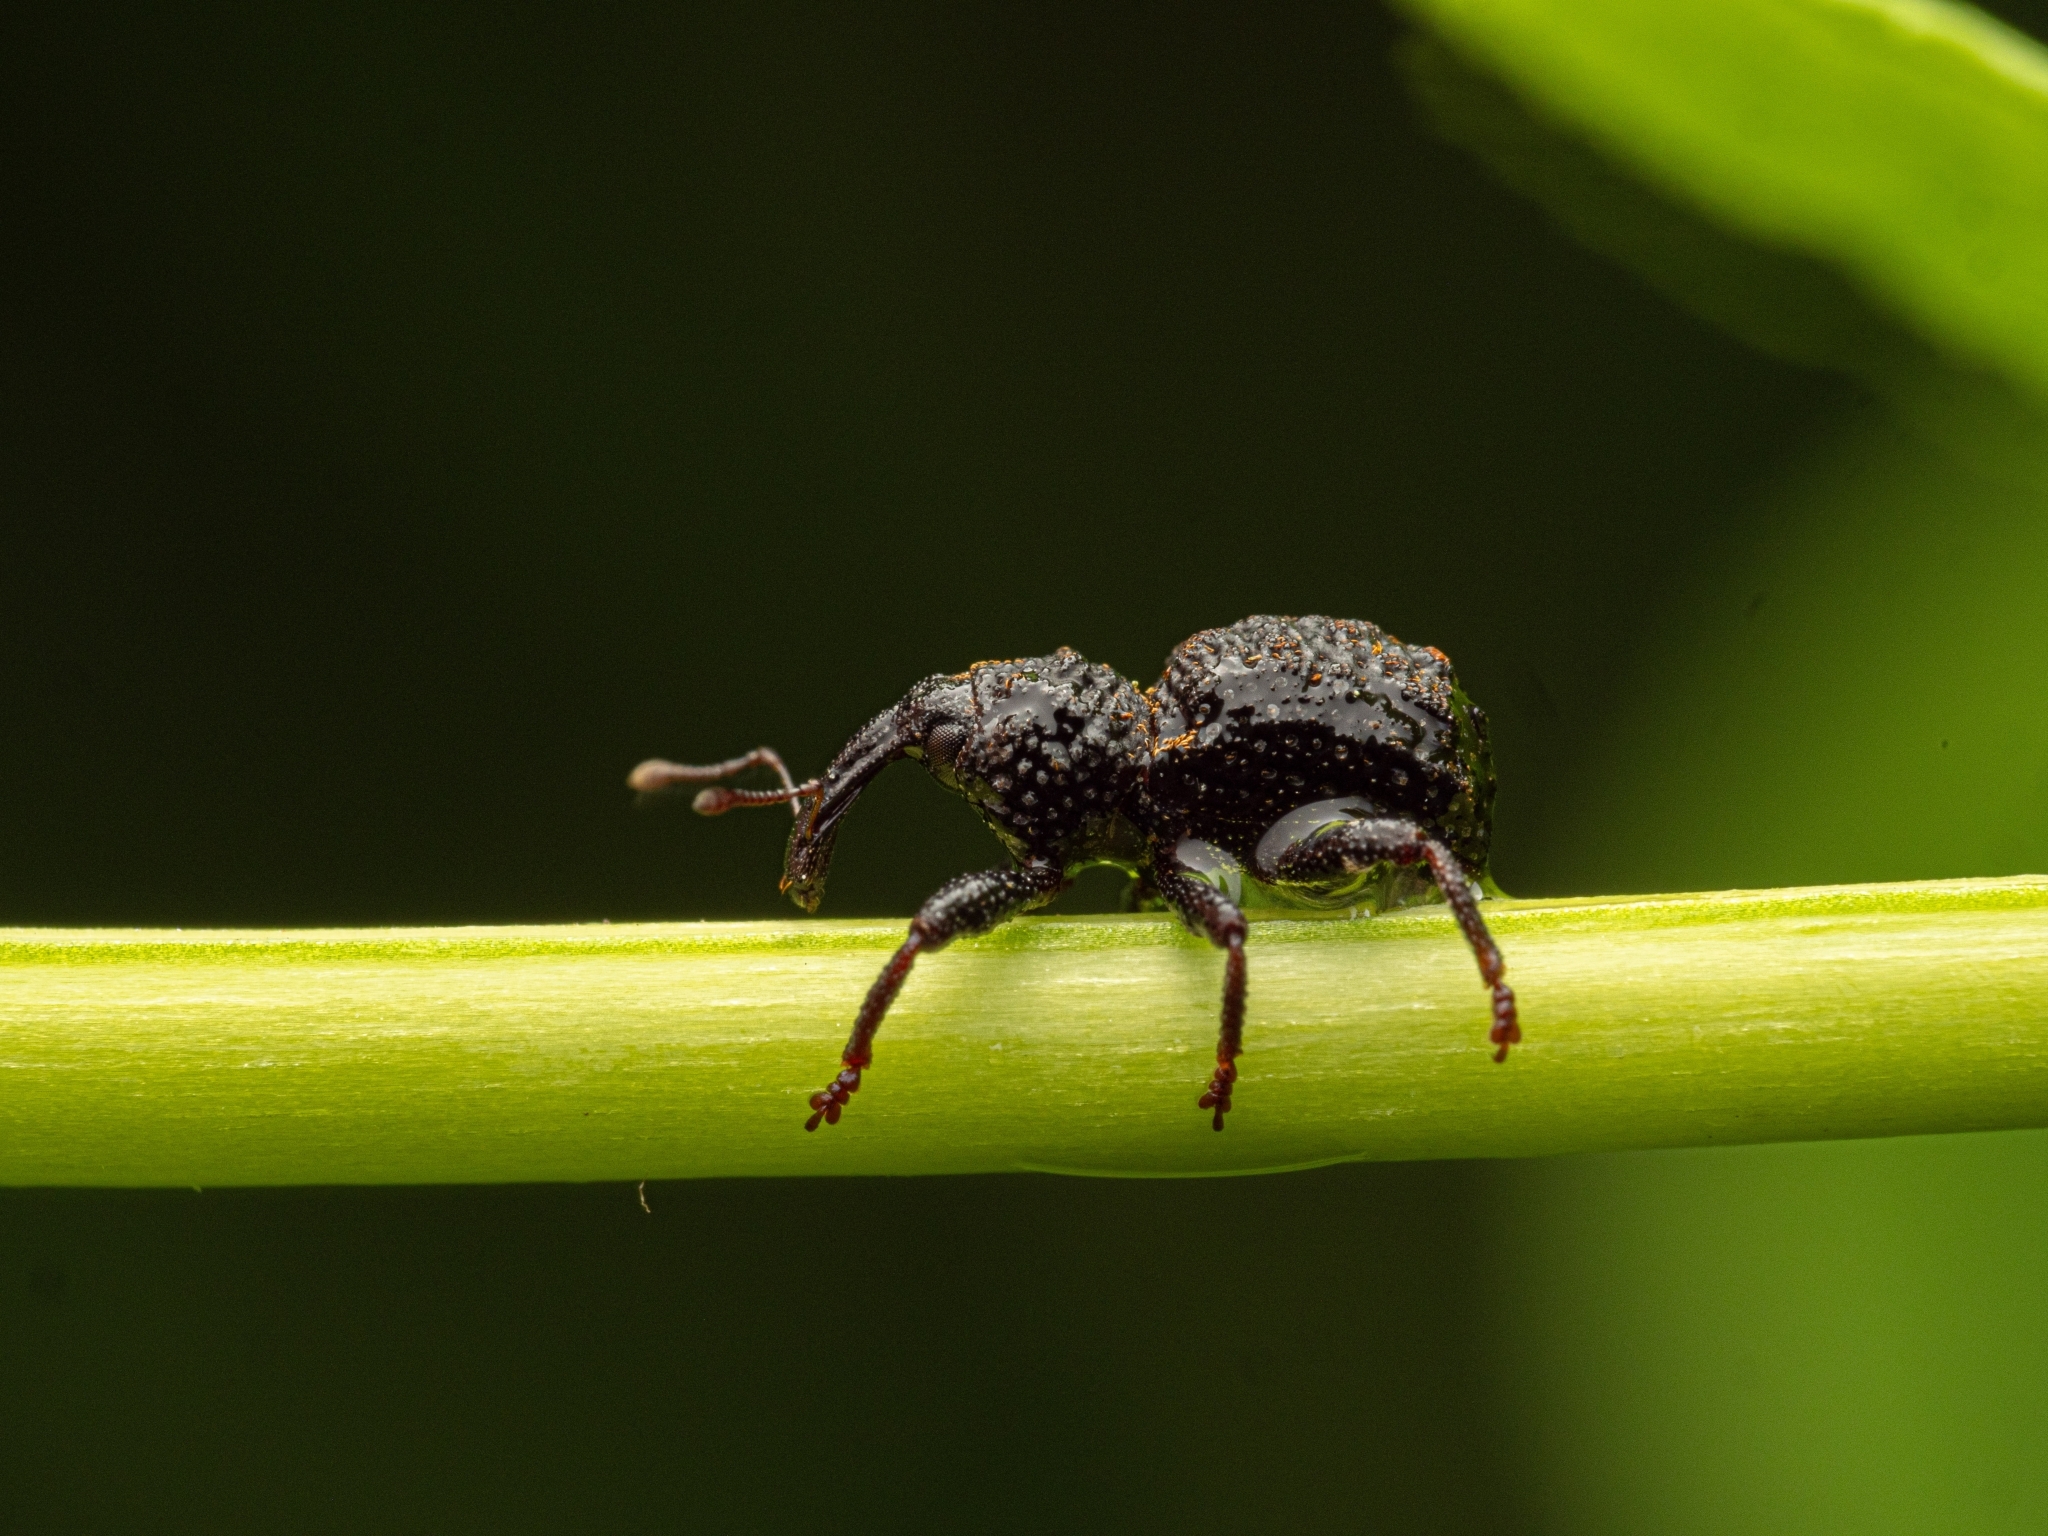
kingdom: Animalia
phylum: Arthropoda
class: Insecta
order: Coleoptera
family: Curculionidae
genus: Syagrius
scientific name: Syagrius intrudens
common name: Fern weevil
